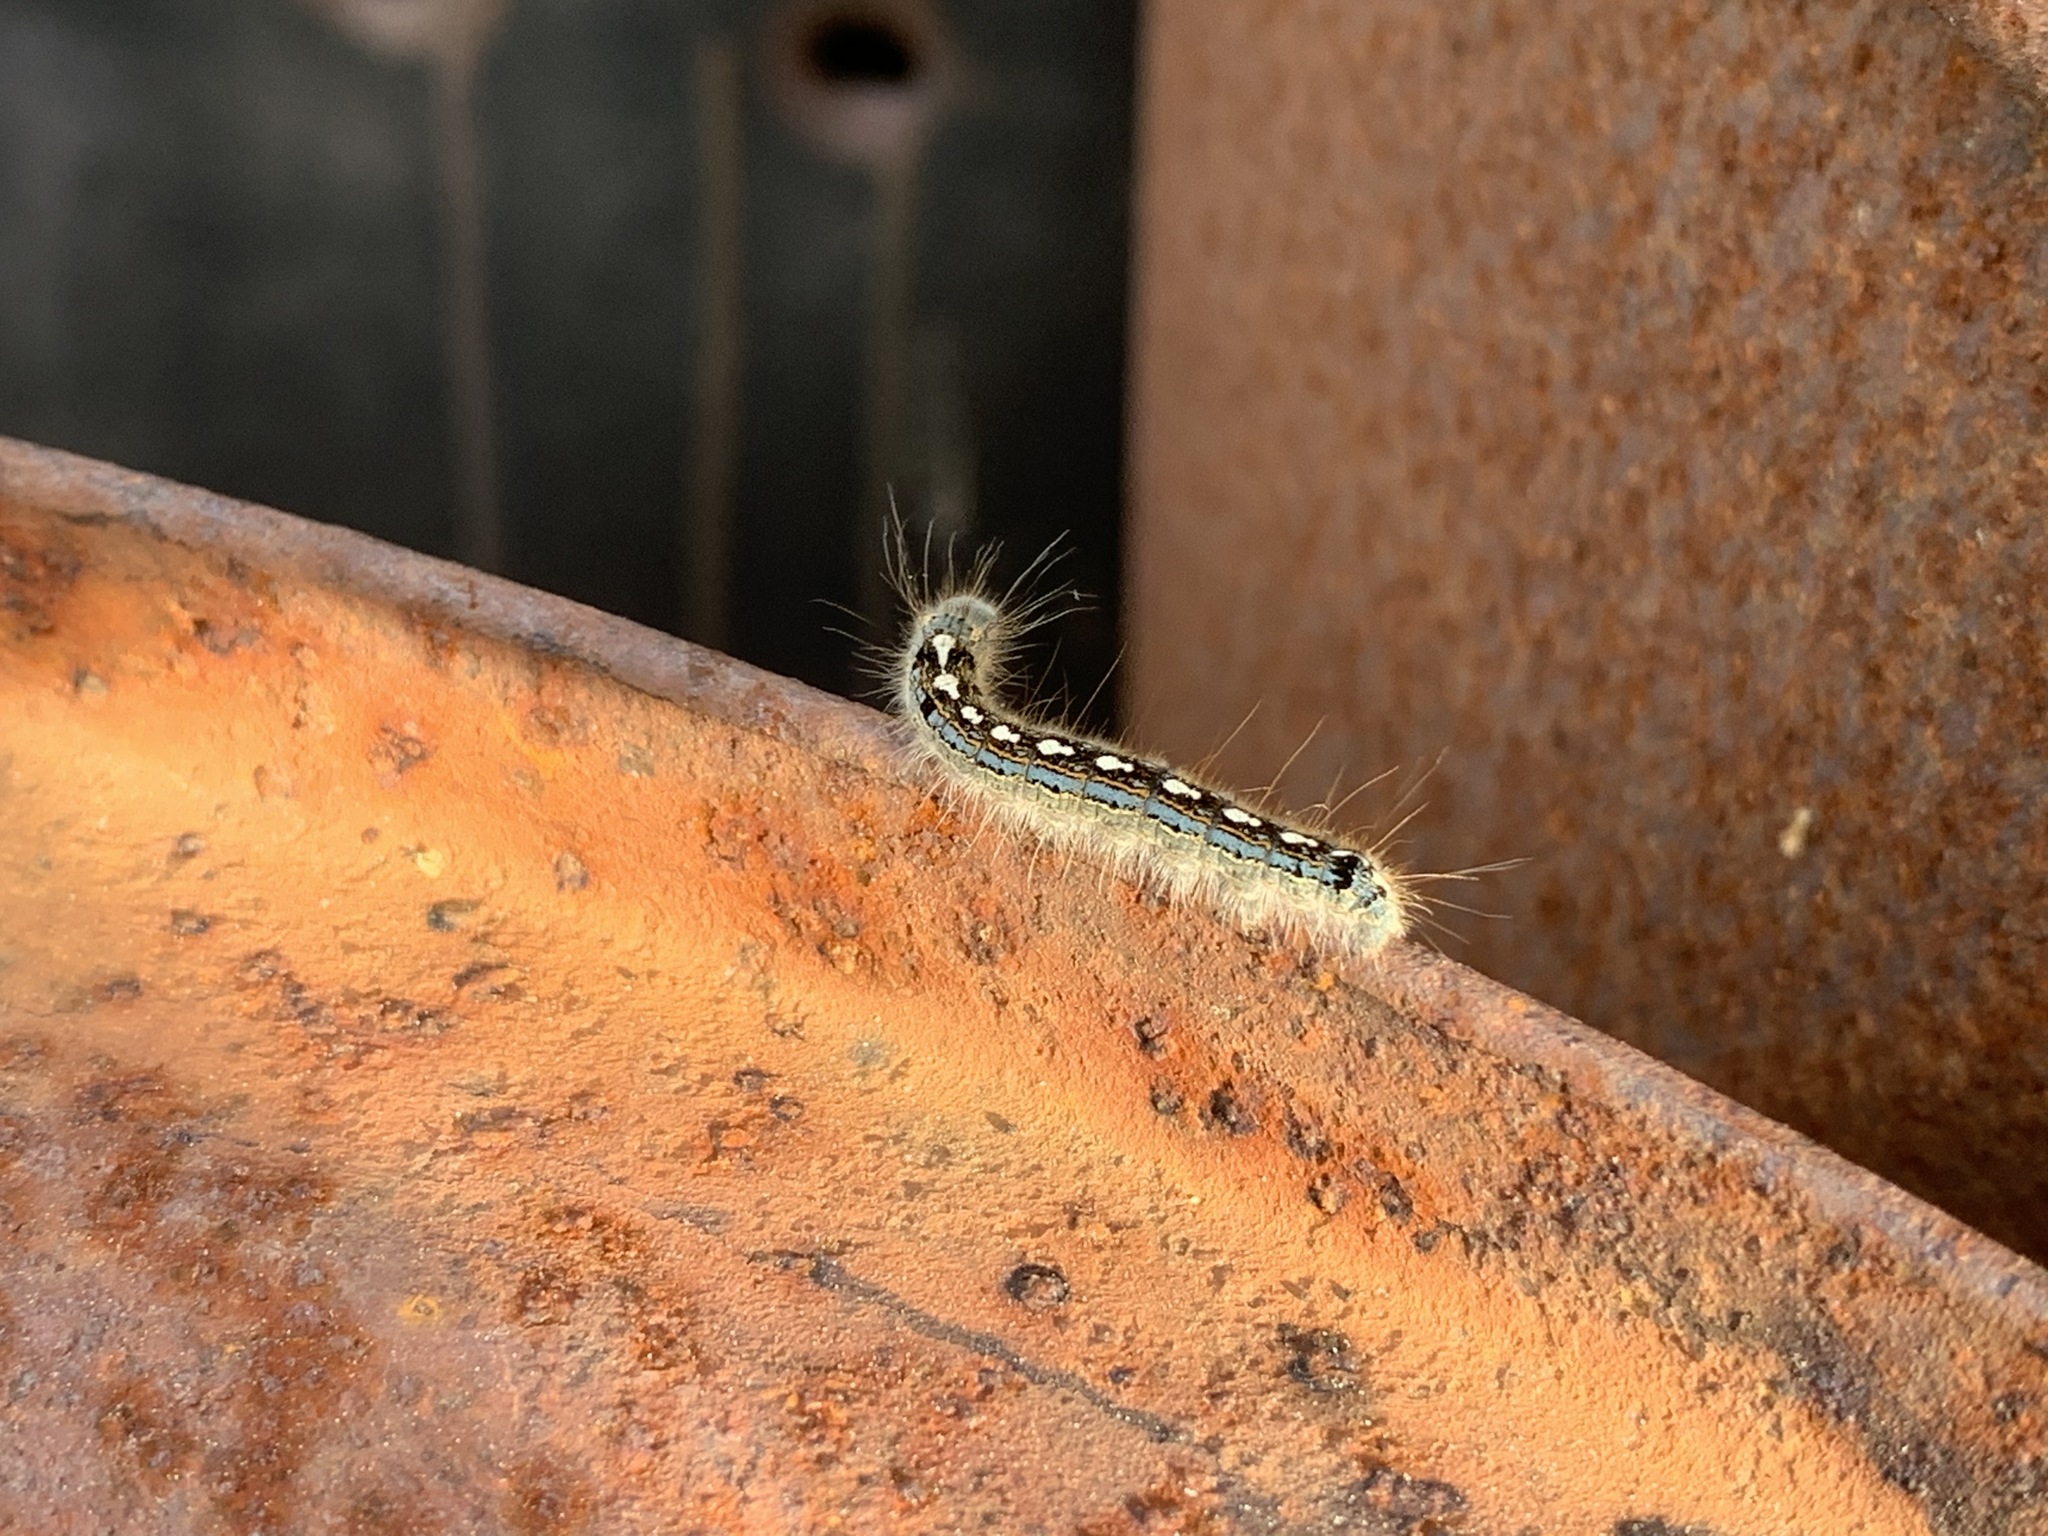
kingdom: Animalia
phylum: Arthropoda
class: Insecta
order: Lepidoptera
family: Lasiocampidae
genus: Malacosoma
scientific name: Malacosoma disstria
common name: Forest tent caterpillar
